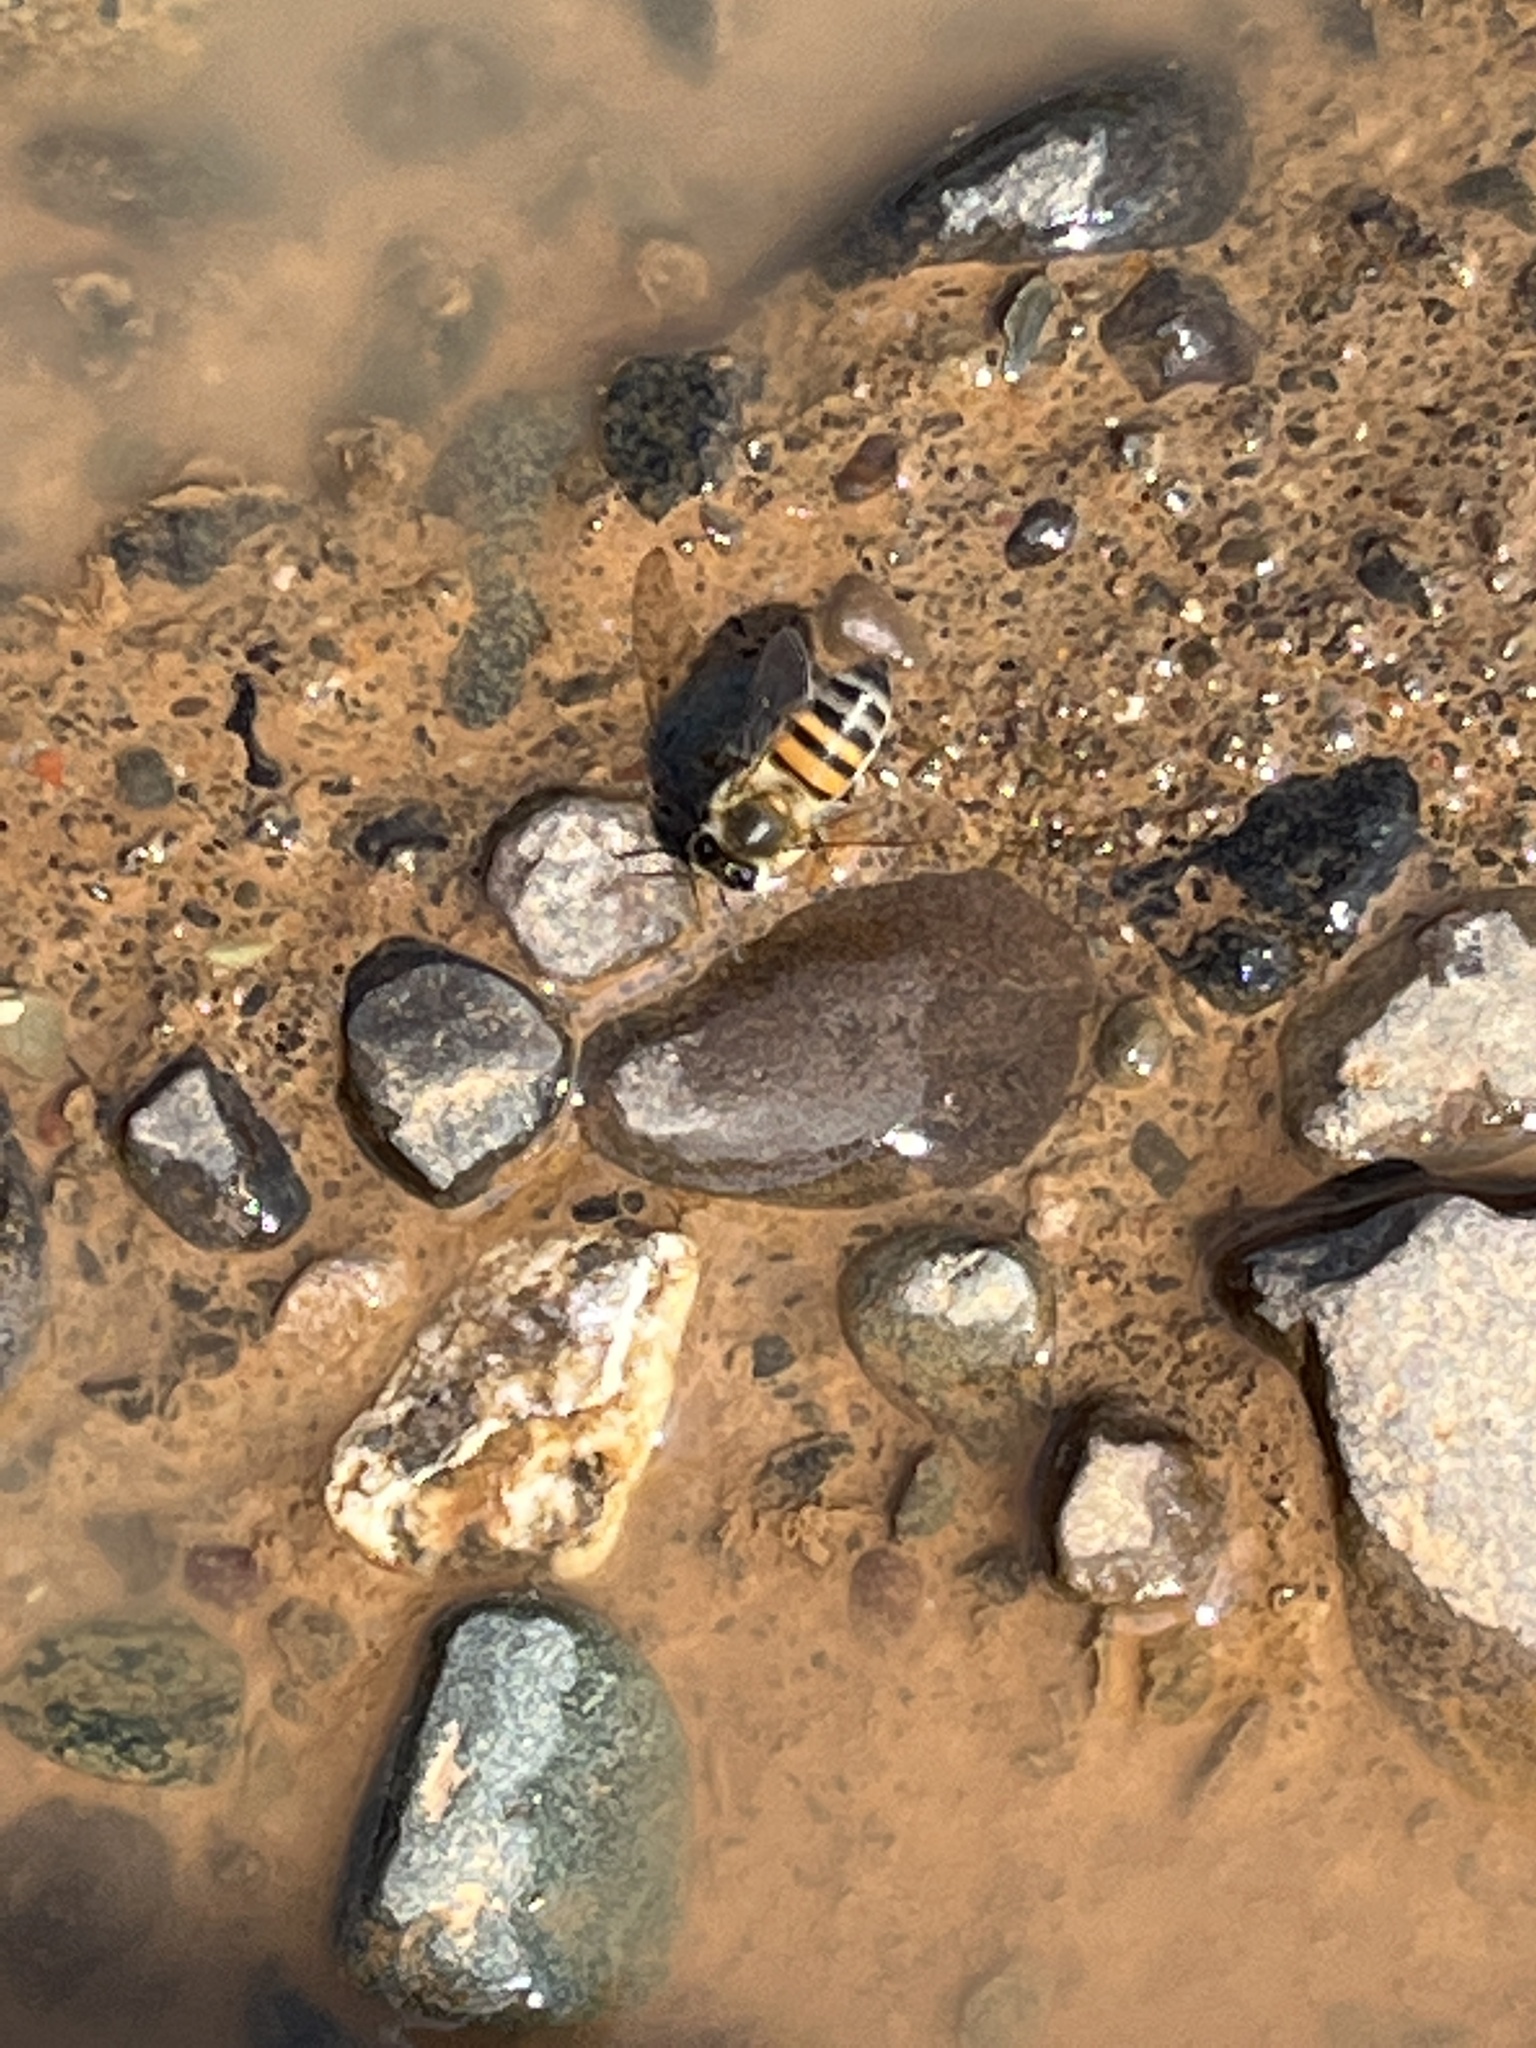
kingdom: Animalia
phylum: Arthropoda
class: Insecta
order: Hymenoptera
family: Apidae
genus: Apis
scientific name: Apis mellifera
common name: Honey bee
